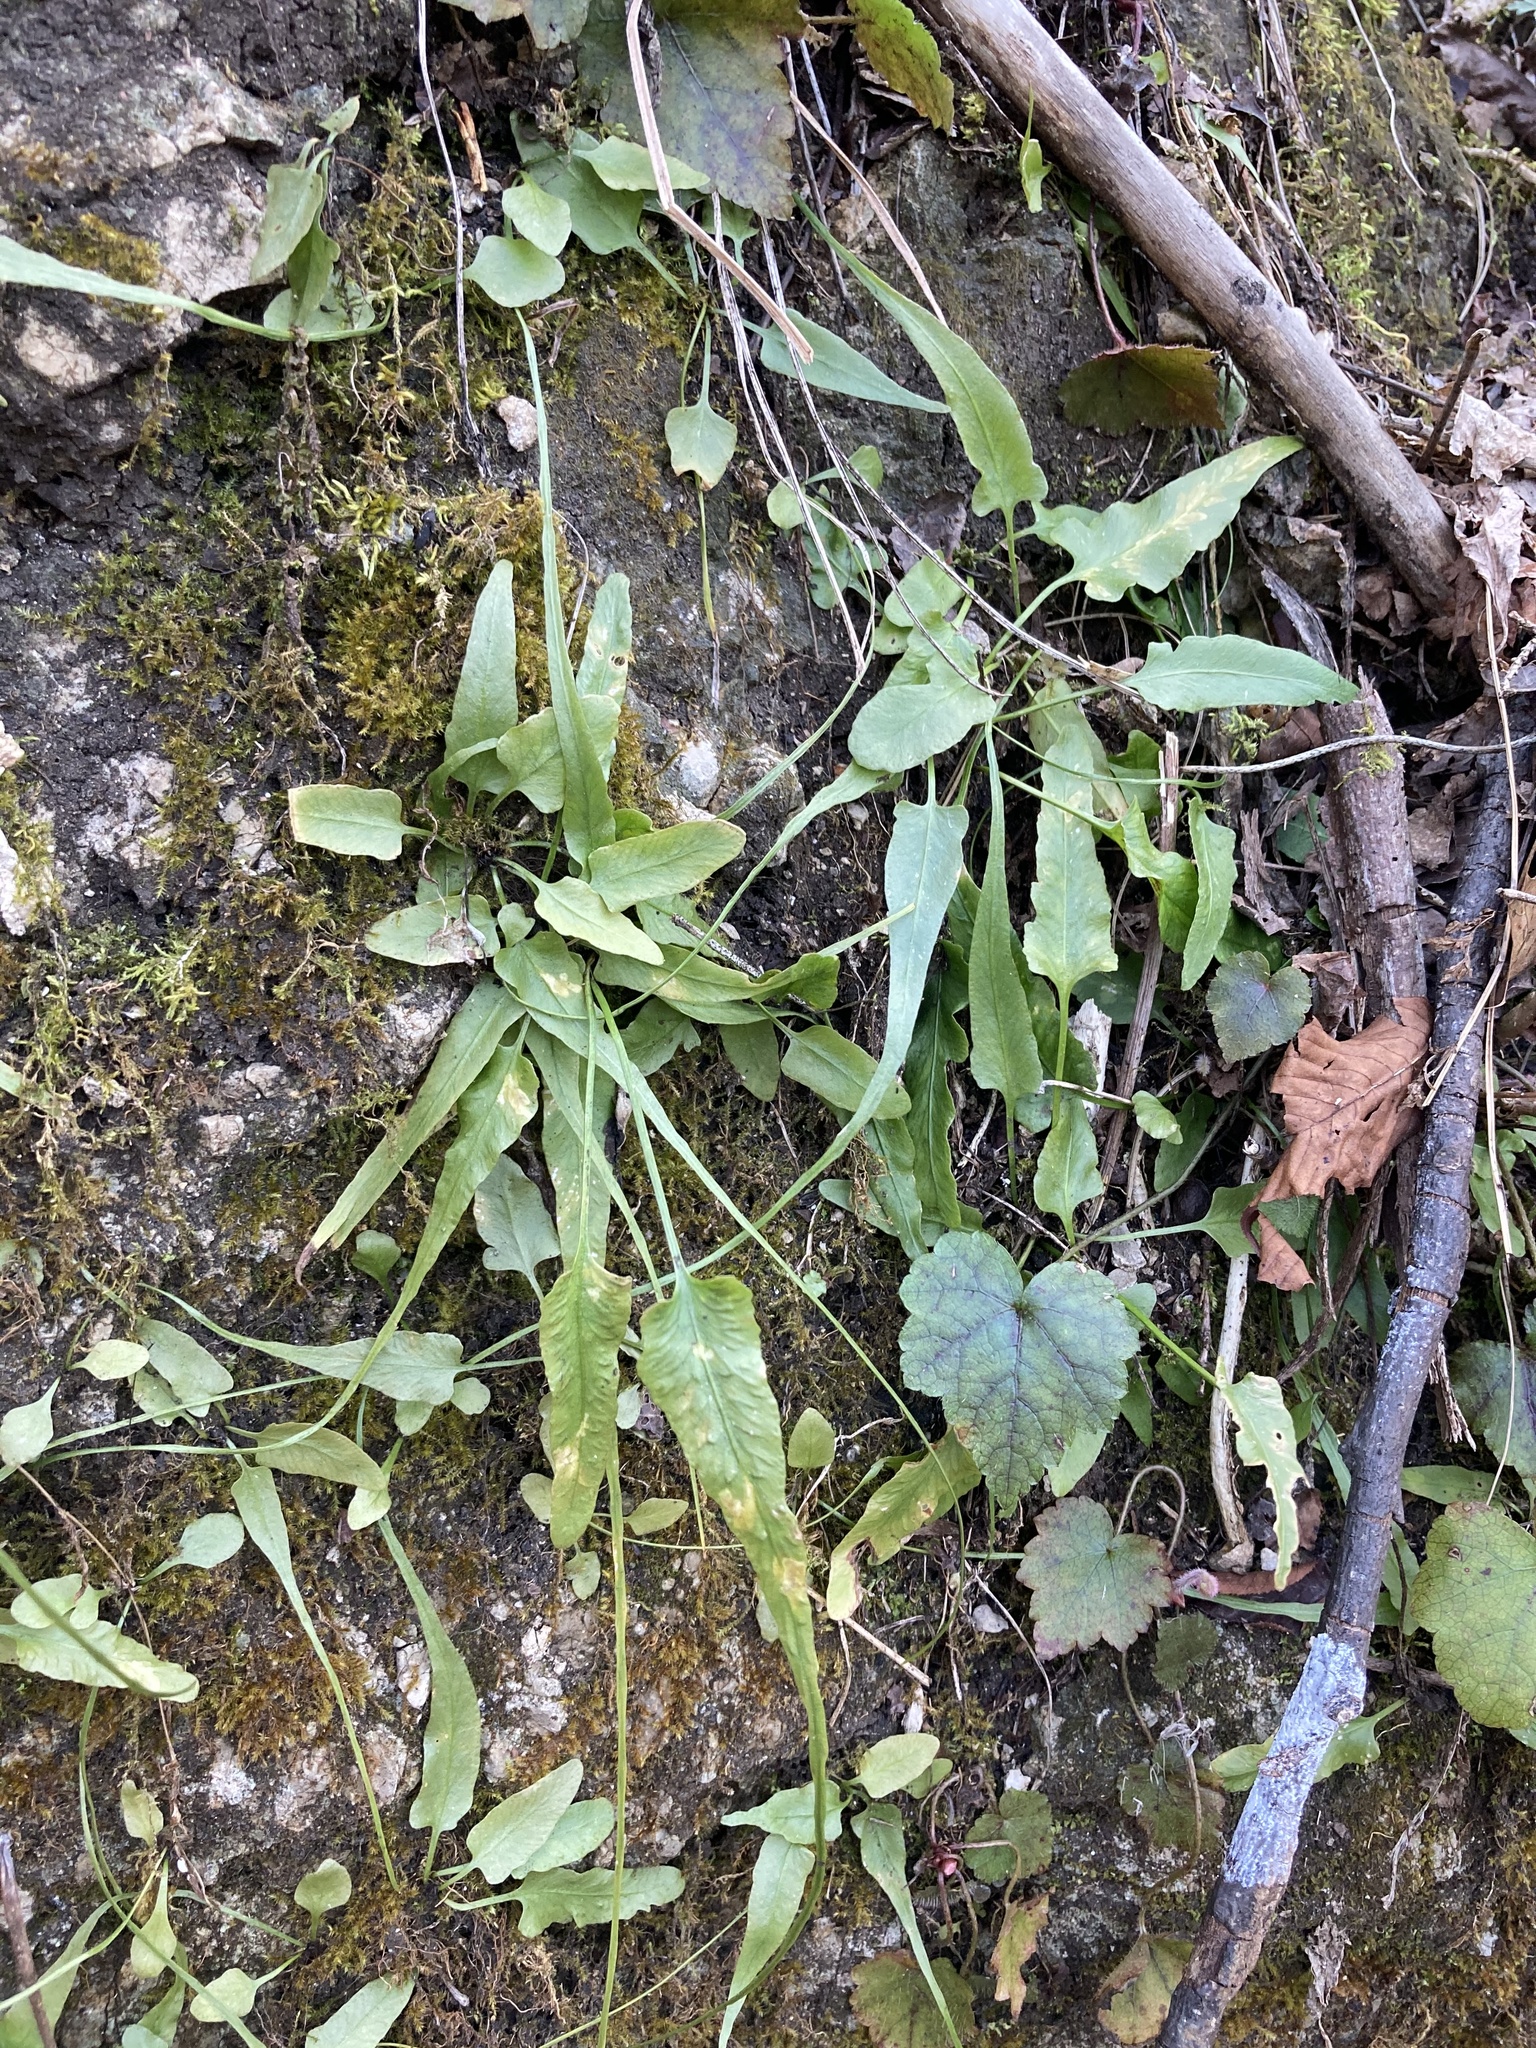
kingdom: Plantae
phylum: Tracheophyta
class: Polypodiopsida
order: Polypodiales
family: Aspleniaceae
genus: Asplenium
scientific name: Asplenium rhizophyllum
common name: Walking fern
